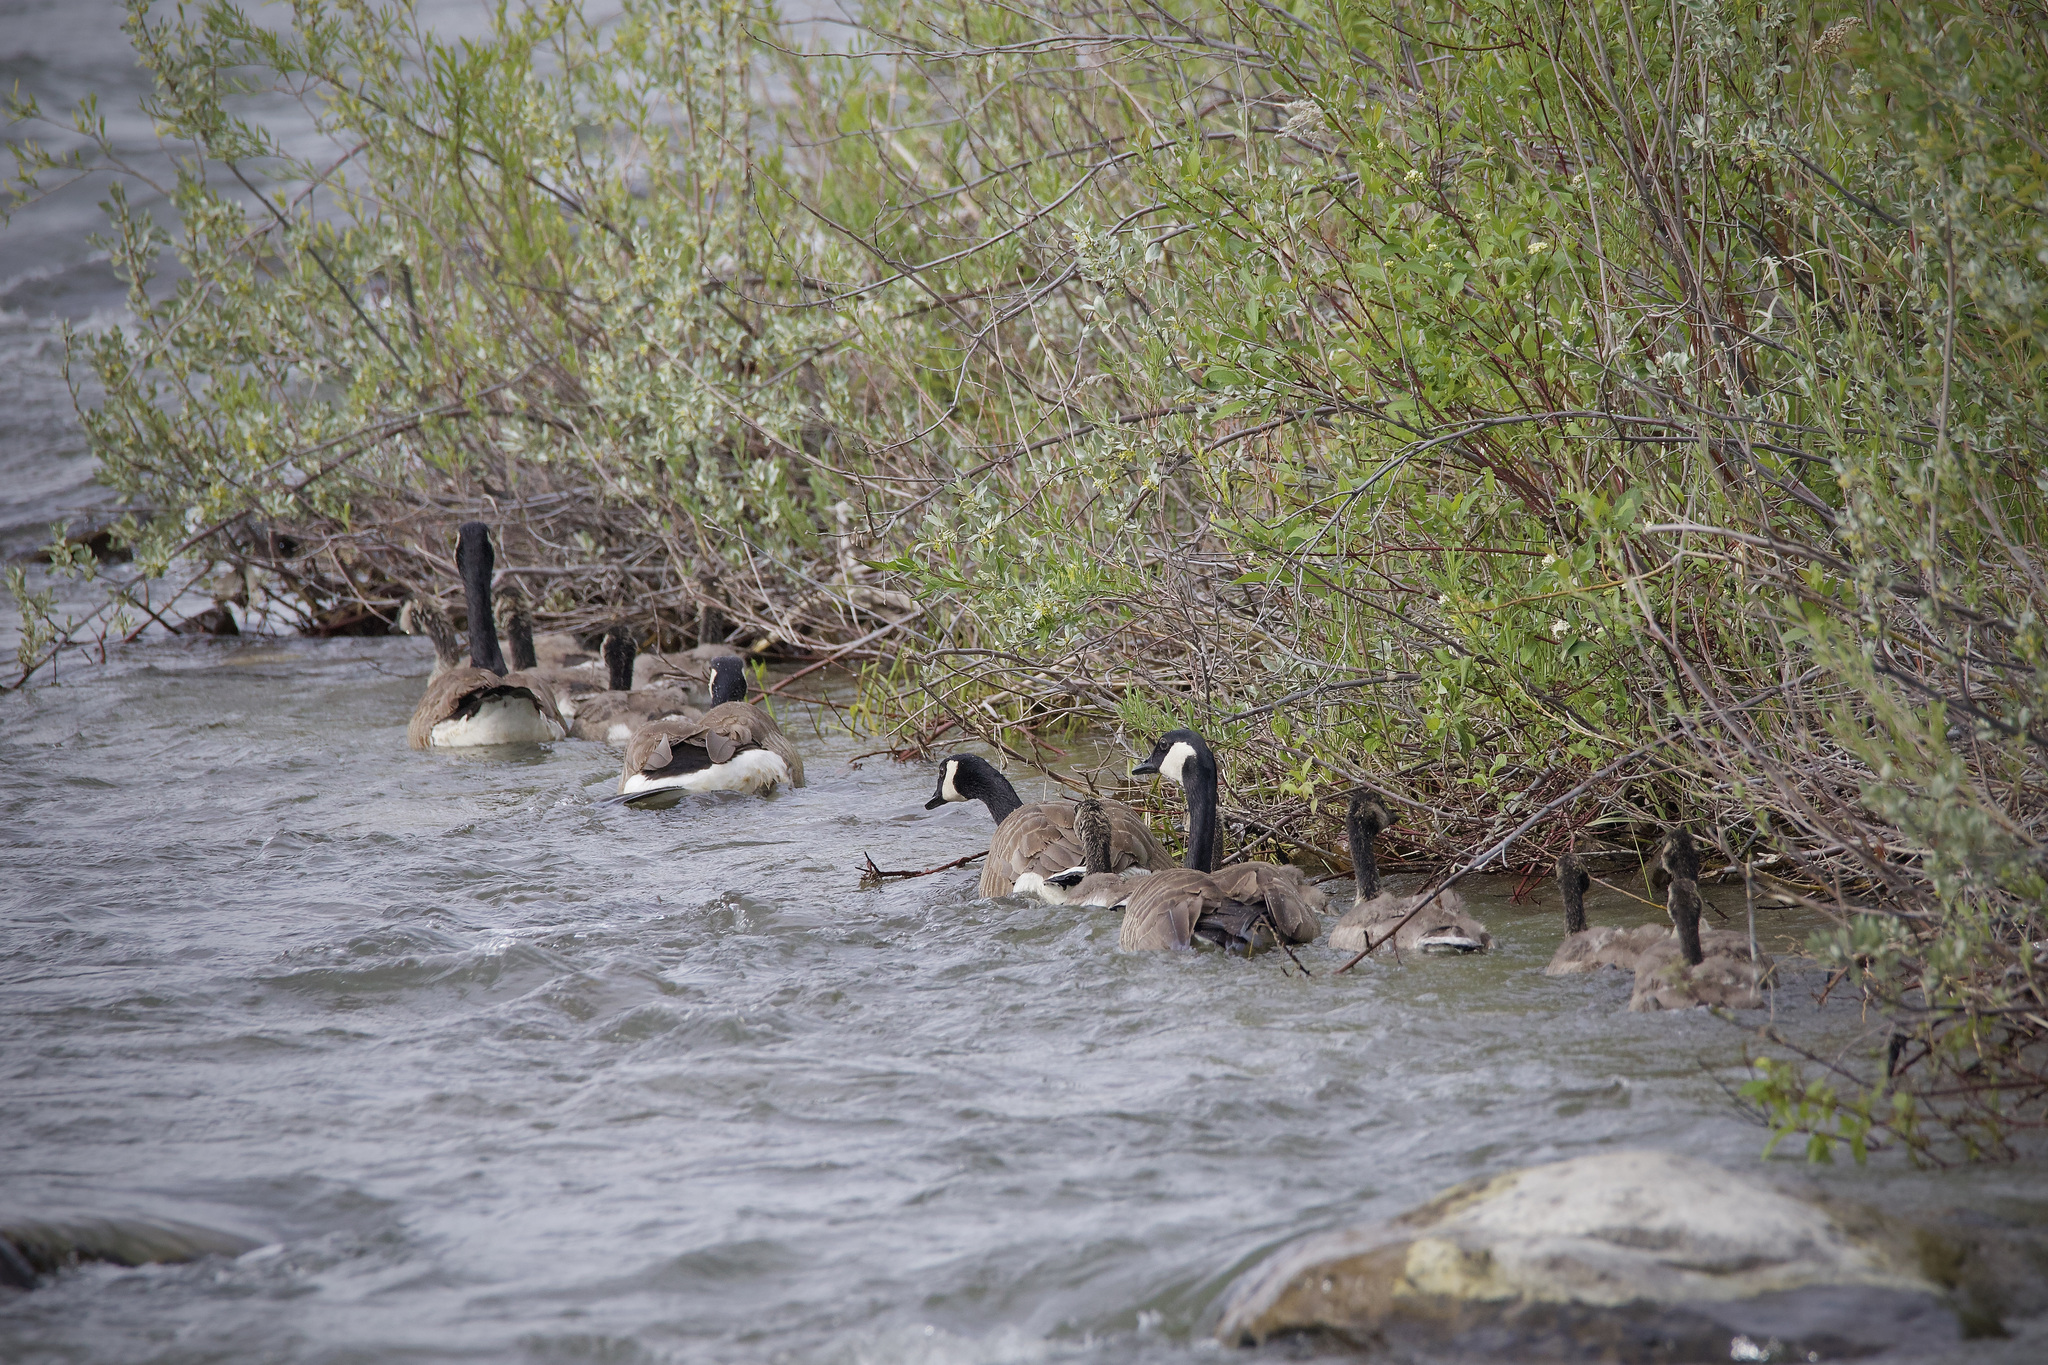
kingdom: Animalia
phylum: Chordata
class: Aves
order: Anseriformes
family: Anatidae
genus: Branta
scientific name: Branta canadensis
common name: Canada goose
